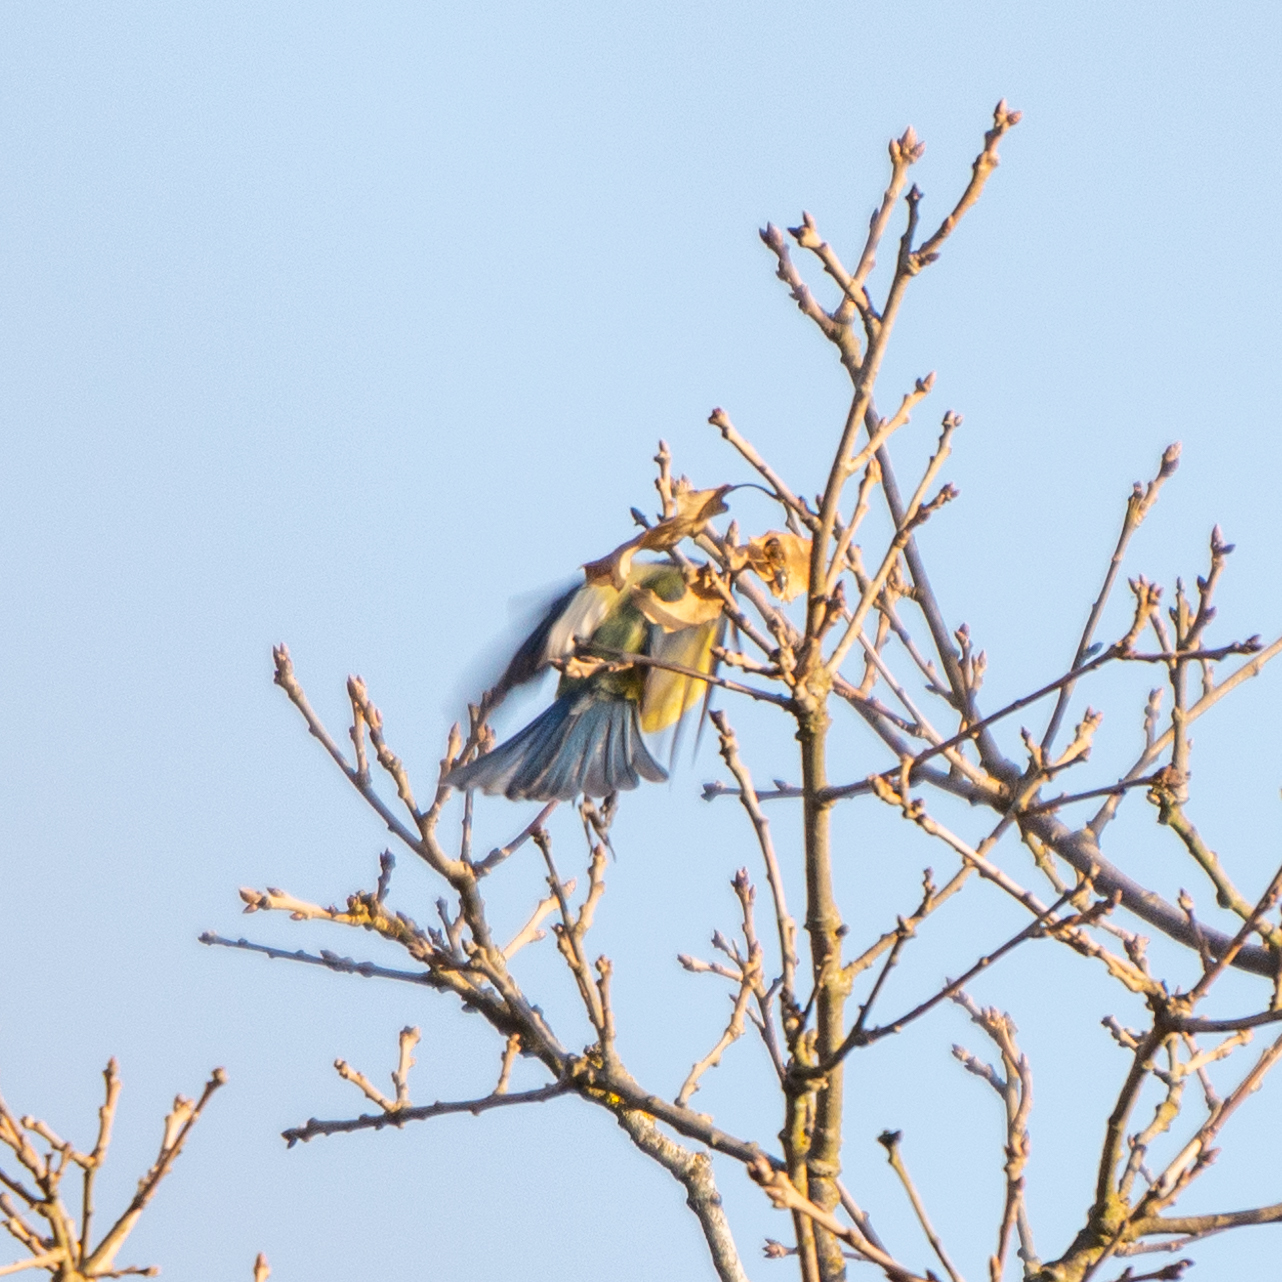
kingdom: Animalia
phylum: Chordata
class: Aves
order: Passeriformes
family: Paridae
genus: Cyanistes
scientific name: Cyanistes caeruleus
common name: Eurasian blue tit
